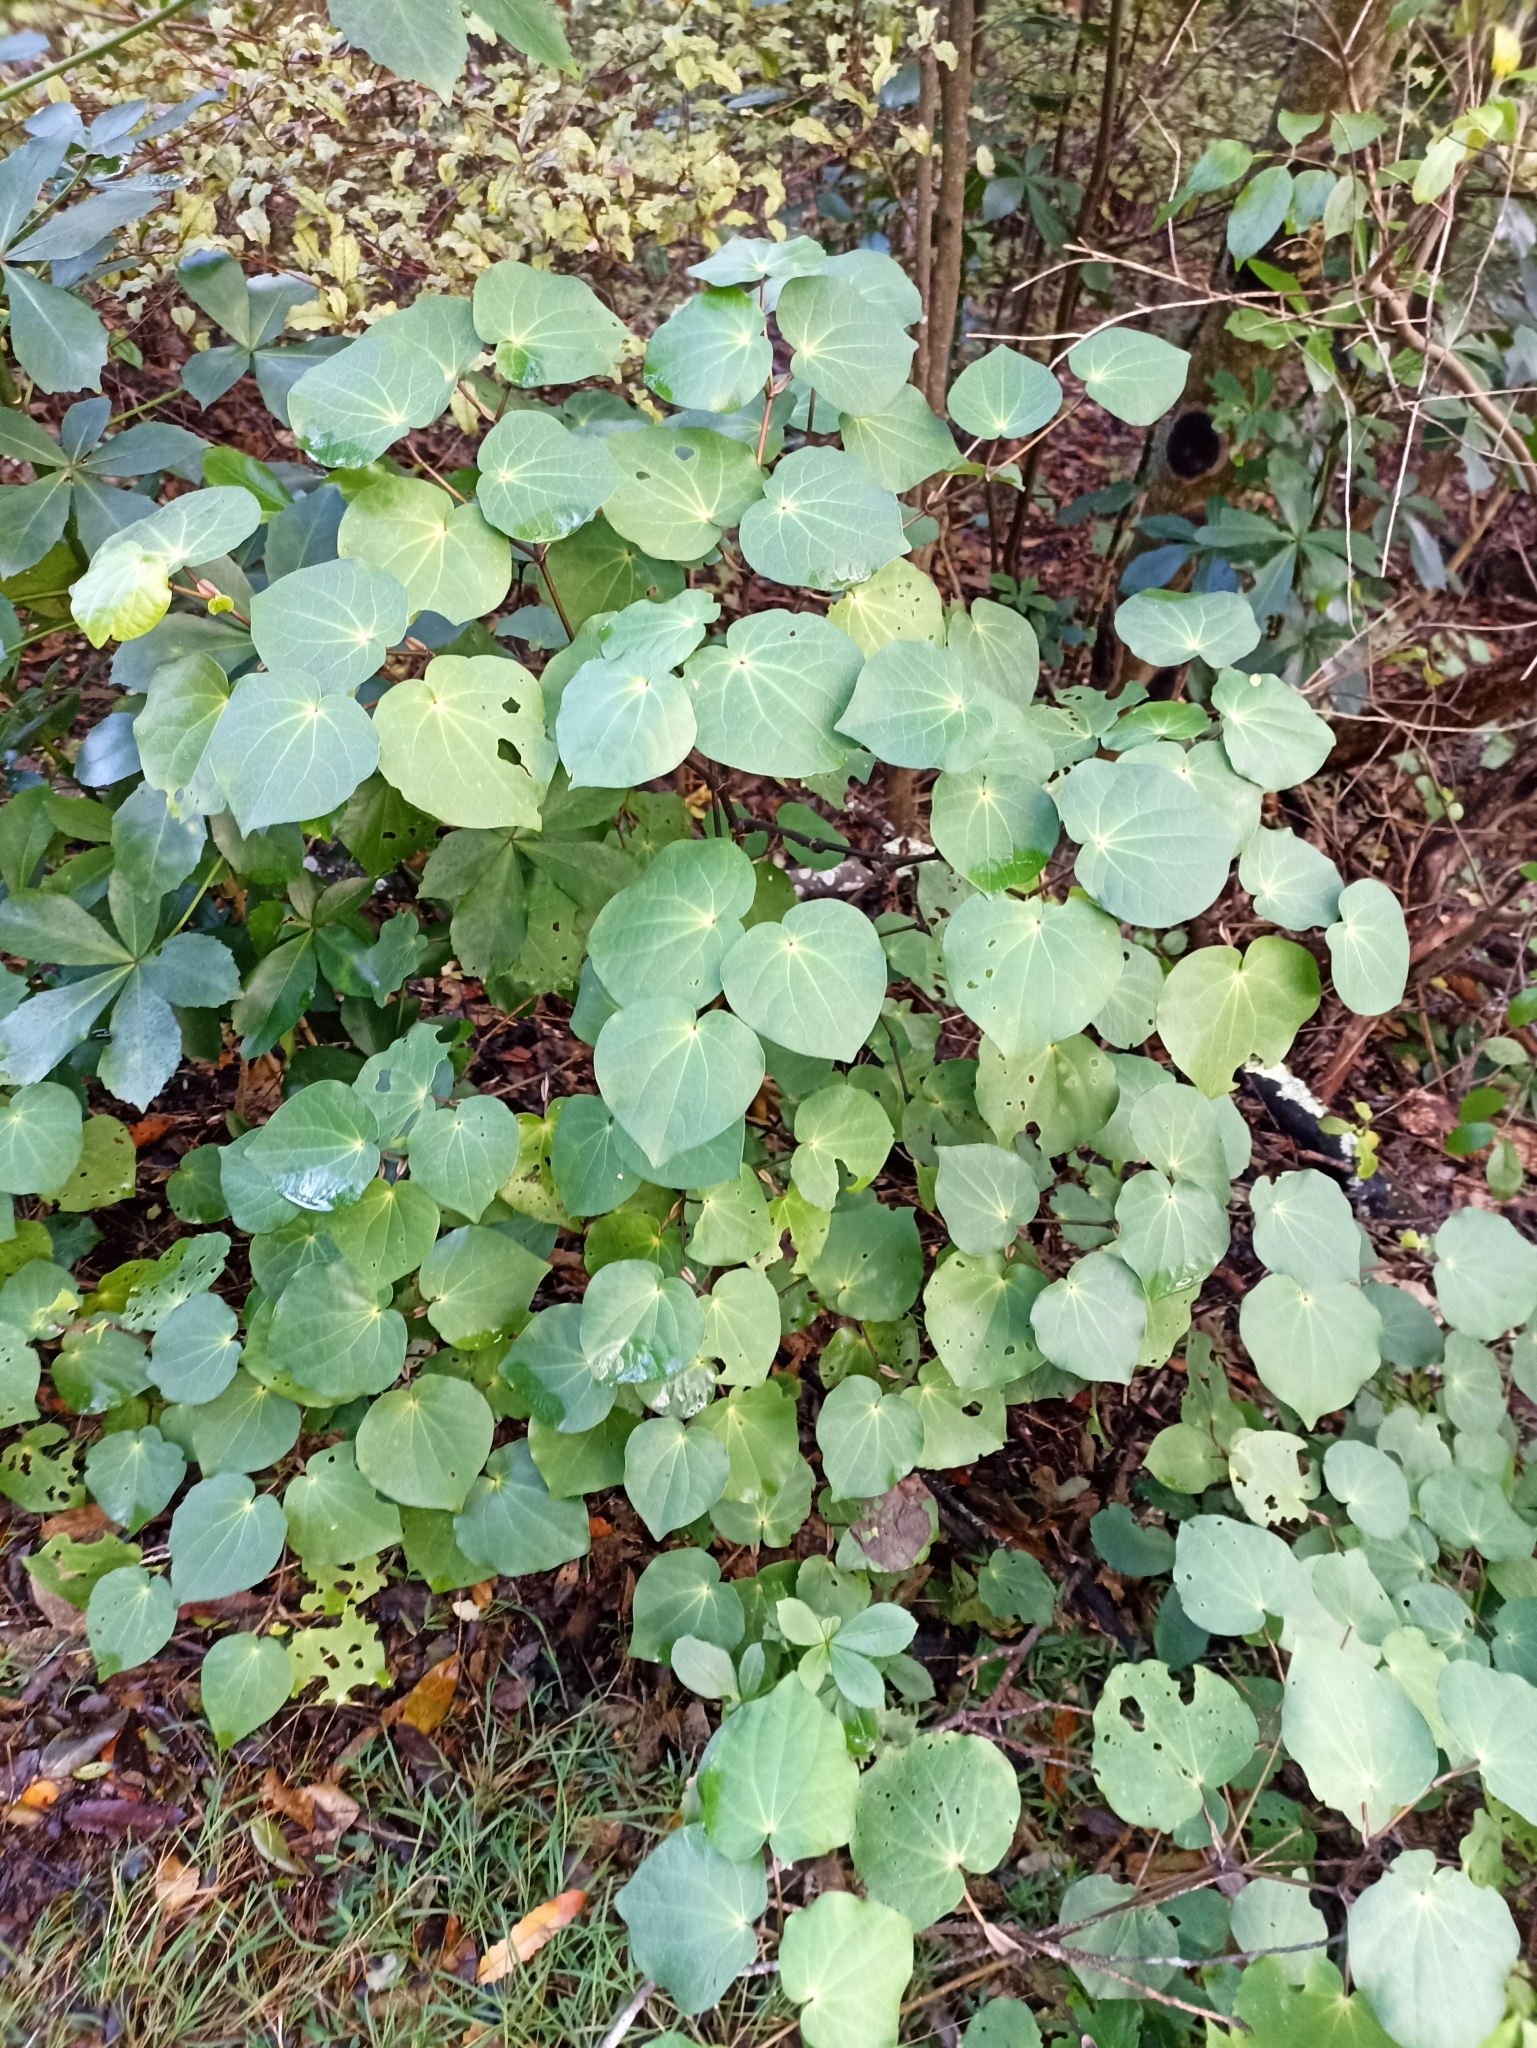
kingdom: Plantae
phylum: Tracheophyta
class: Magnoliopsida
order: Piperales
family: Piperaceae
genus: Macropiper
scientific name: Macropiper excelsum
